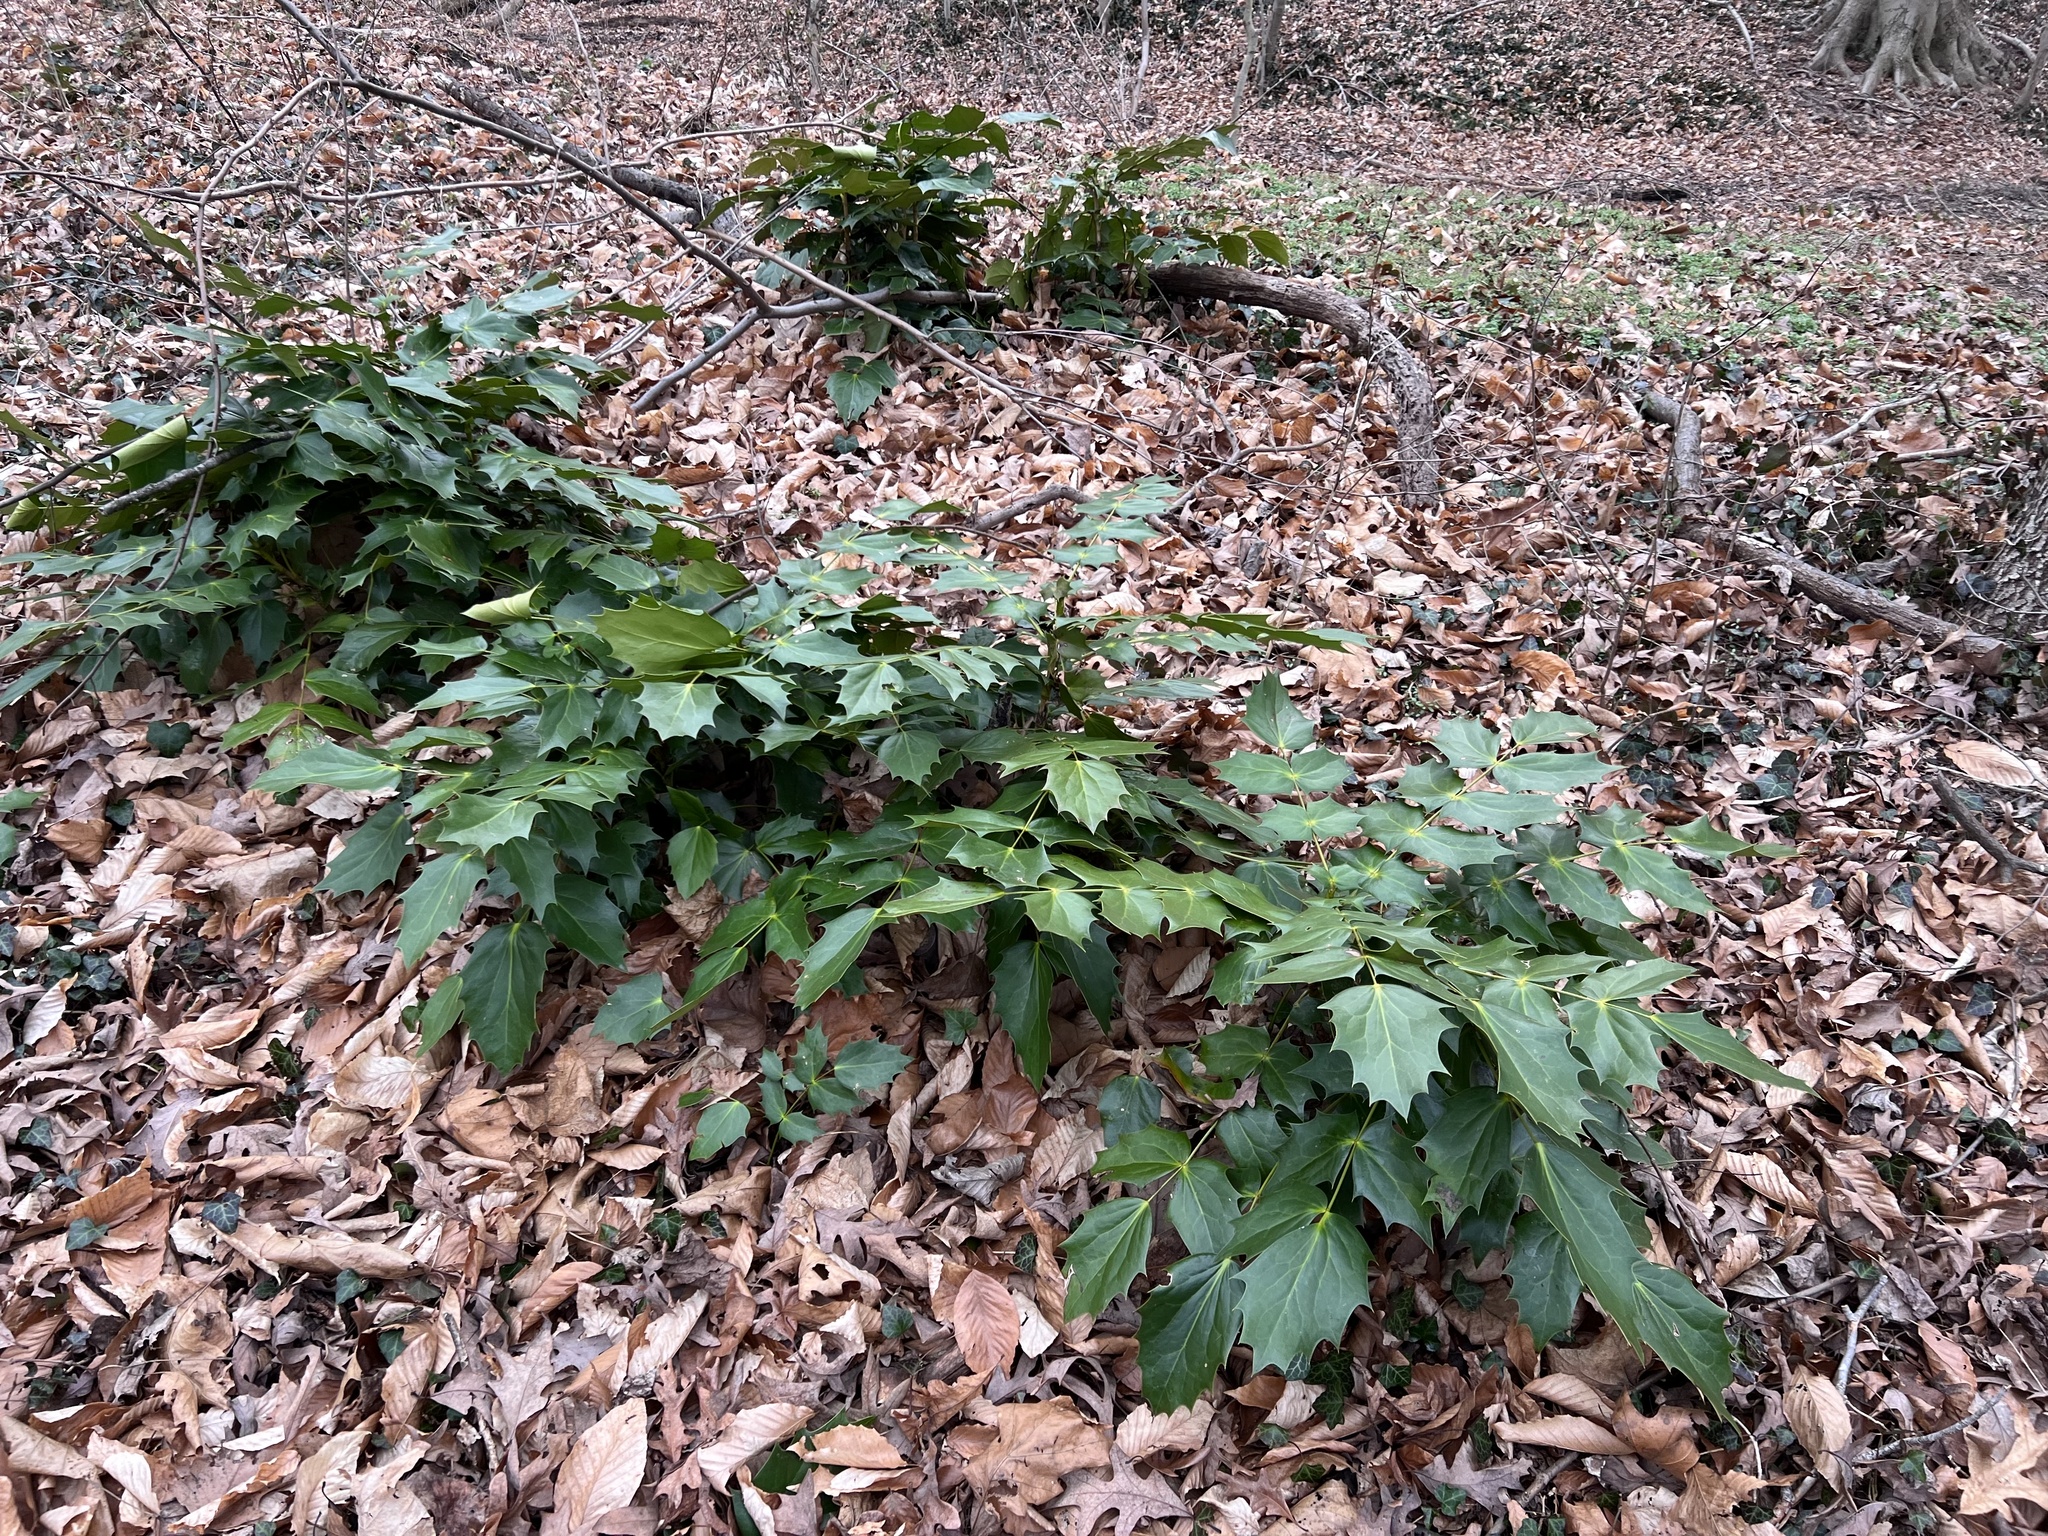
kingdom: Plantae
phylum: Tracheophyta
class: Magnoliopsida
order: Ranunculales
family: Berberidaceae
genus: Mahonia
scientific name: Mahonia bealei
